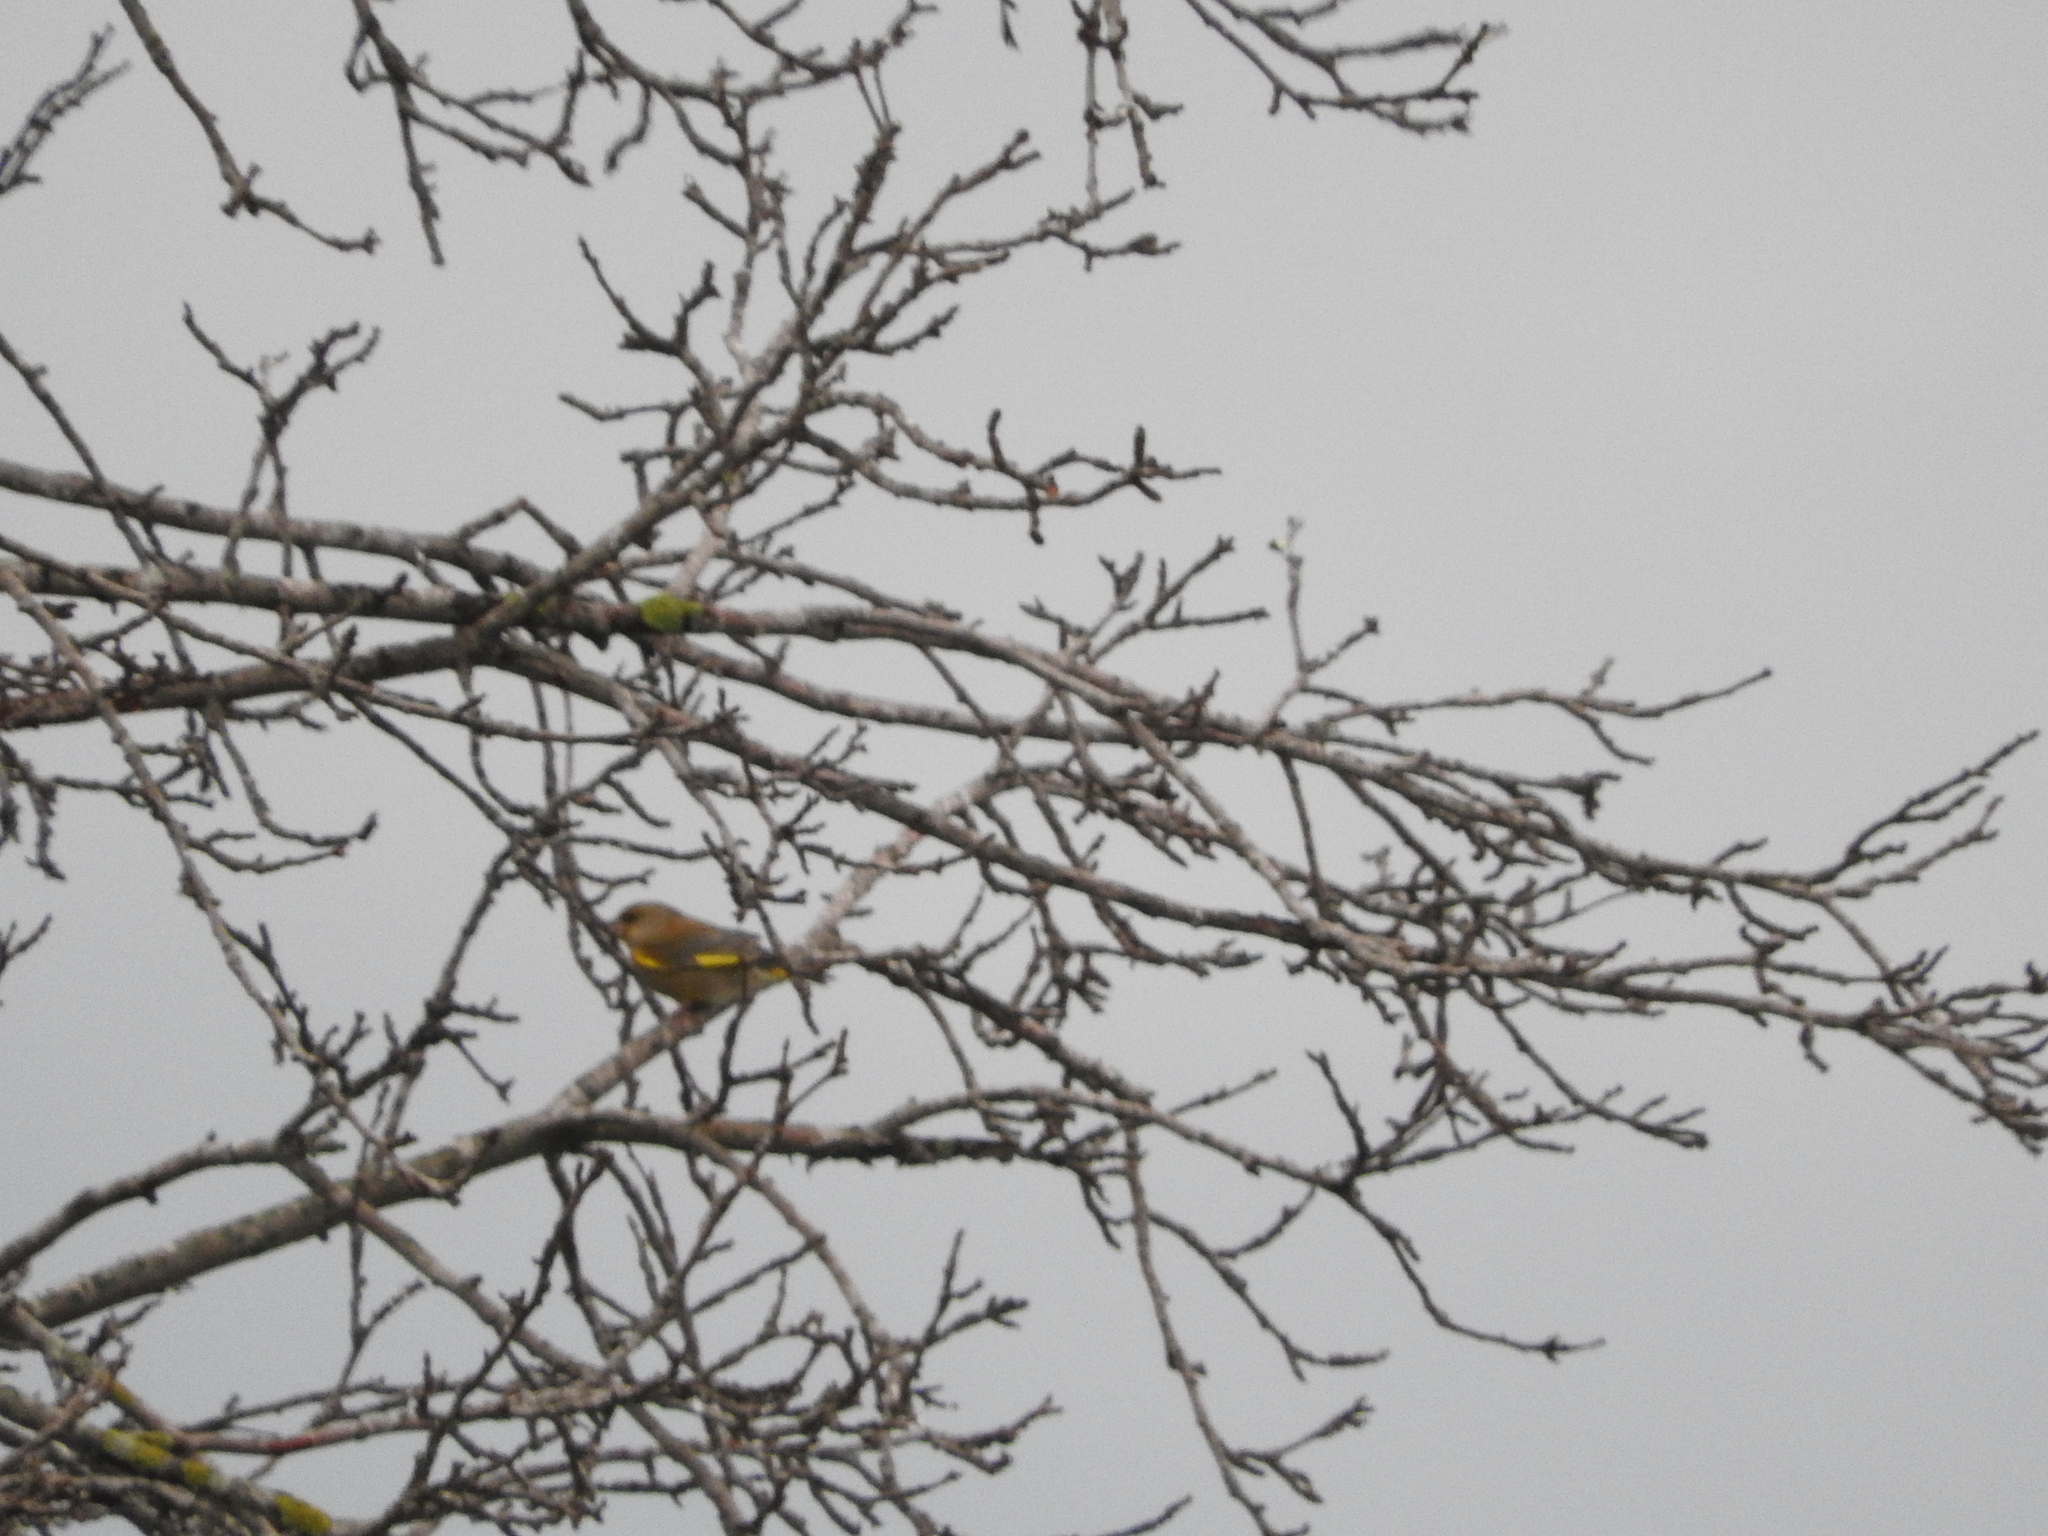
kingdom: Plantae
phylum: Tracheophyta
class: Liliopsida
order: Poales
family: Poaceae
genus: Chloris
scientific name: Chloris chloris
